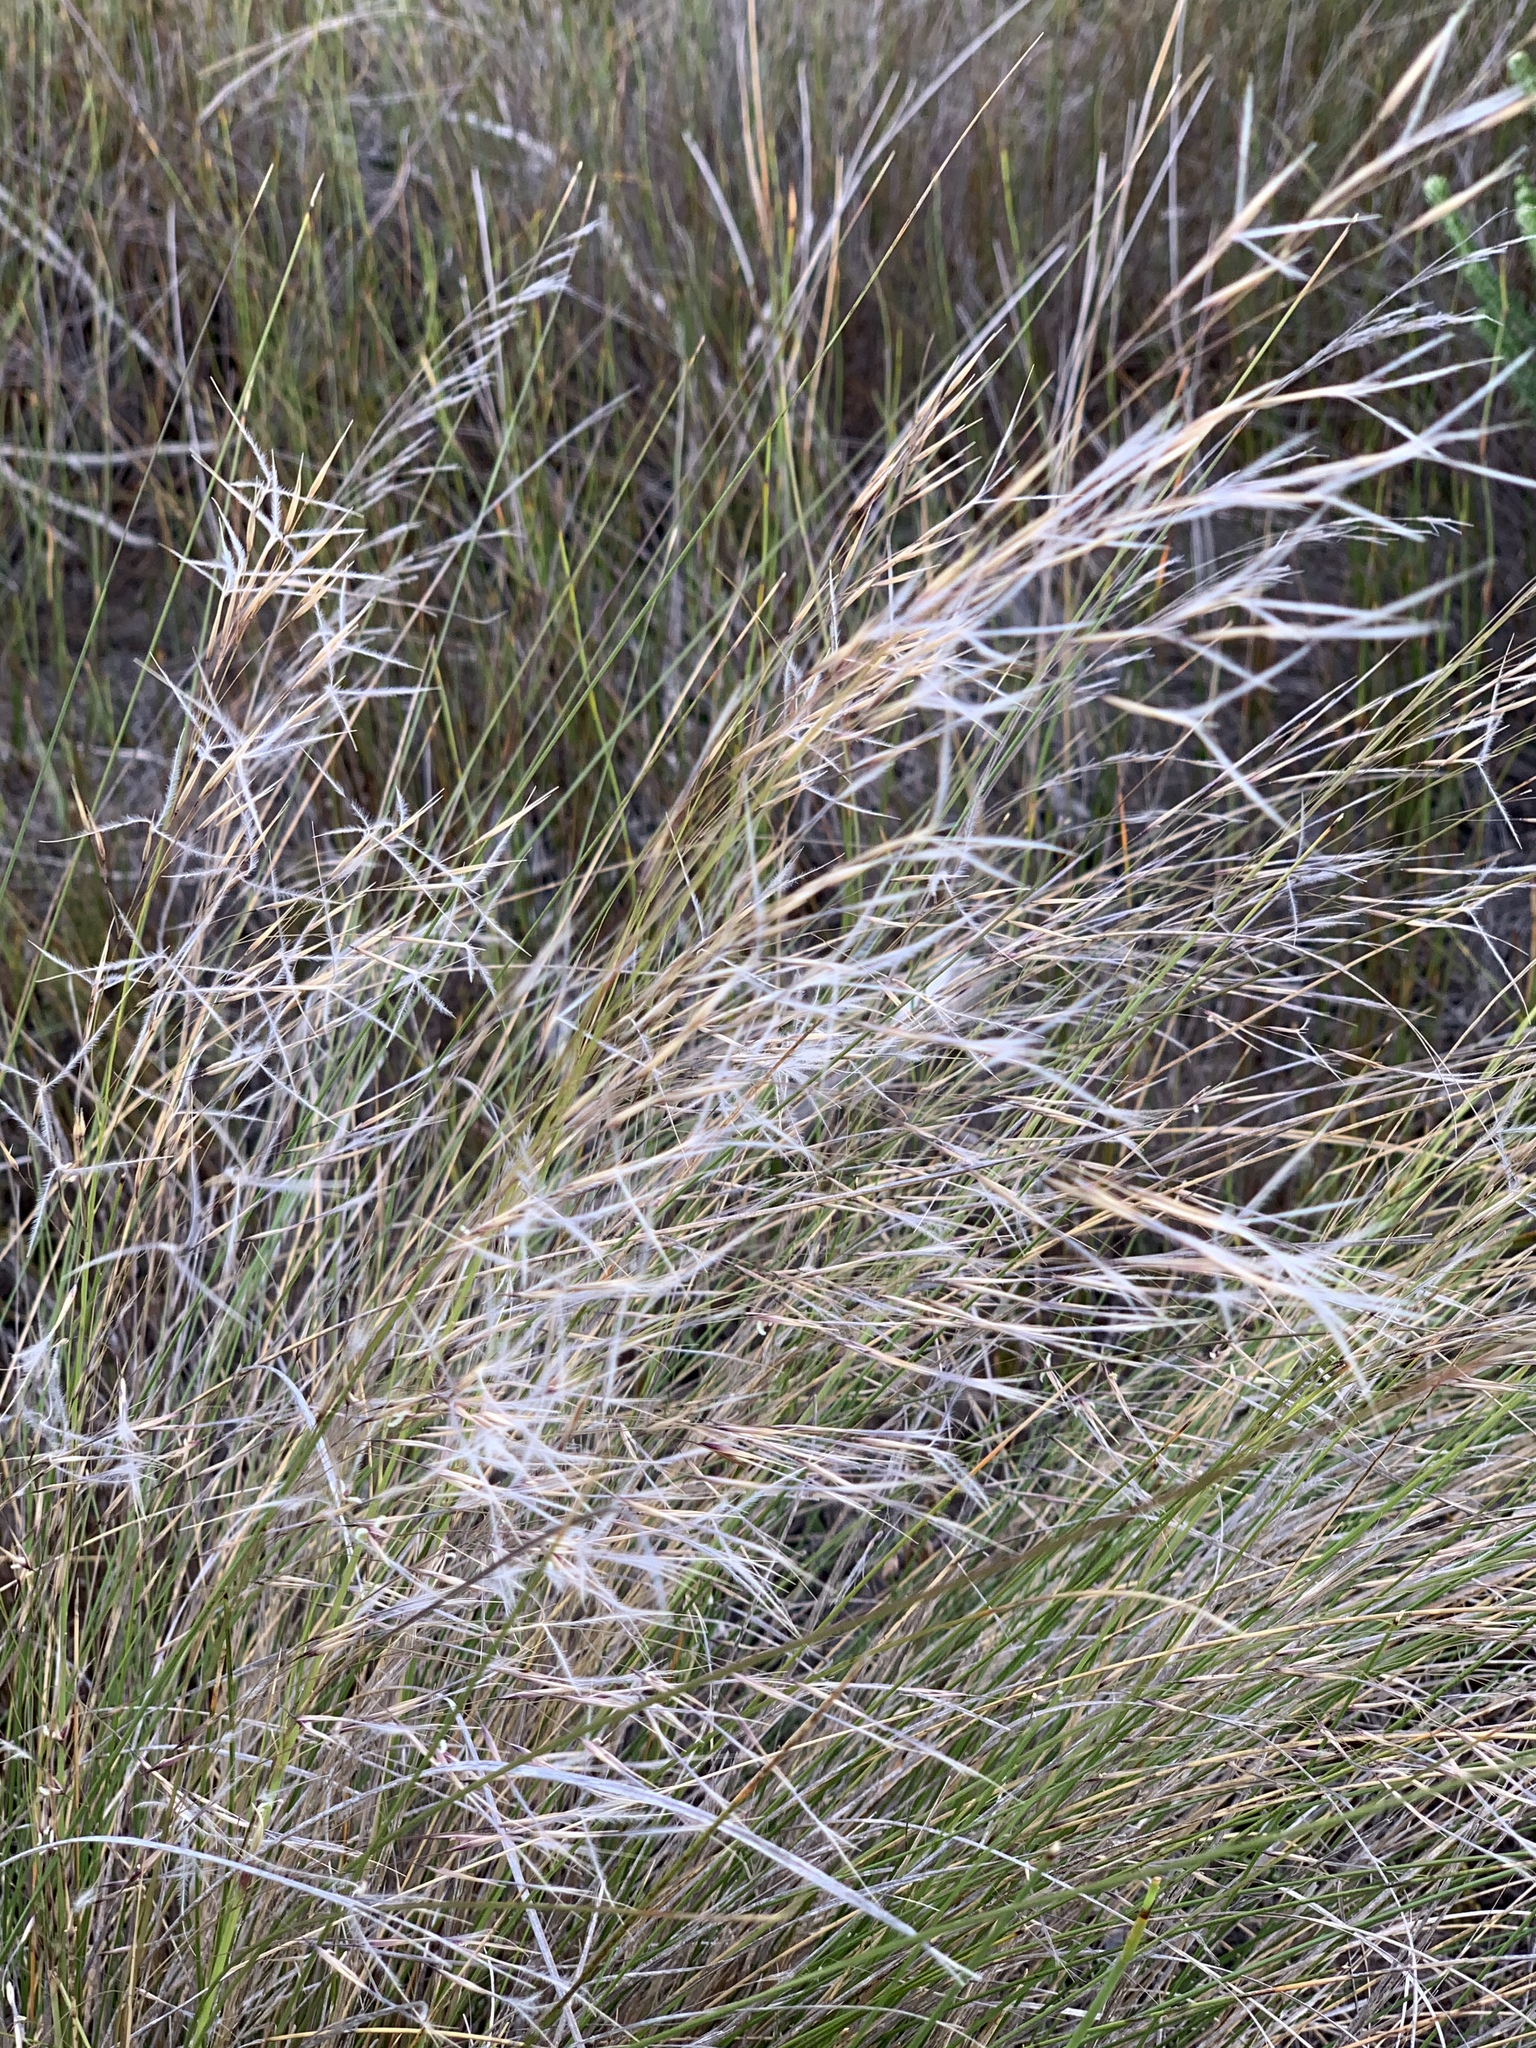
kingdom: Plantae
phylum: Tracheophyta
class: Liliopsida
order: Poales
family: Poaceae
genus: Stipagrostis
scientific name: Stipagrostis zeyheri
